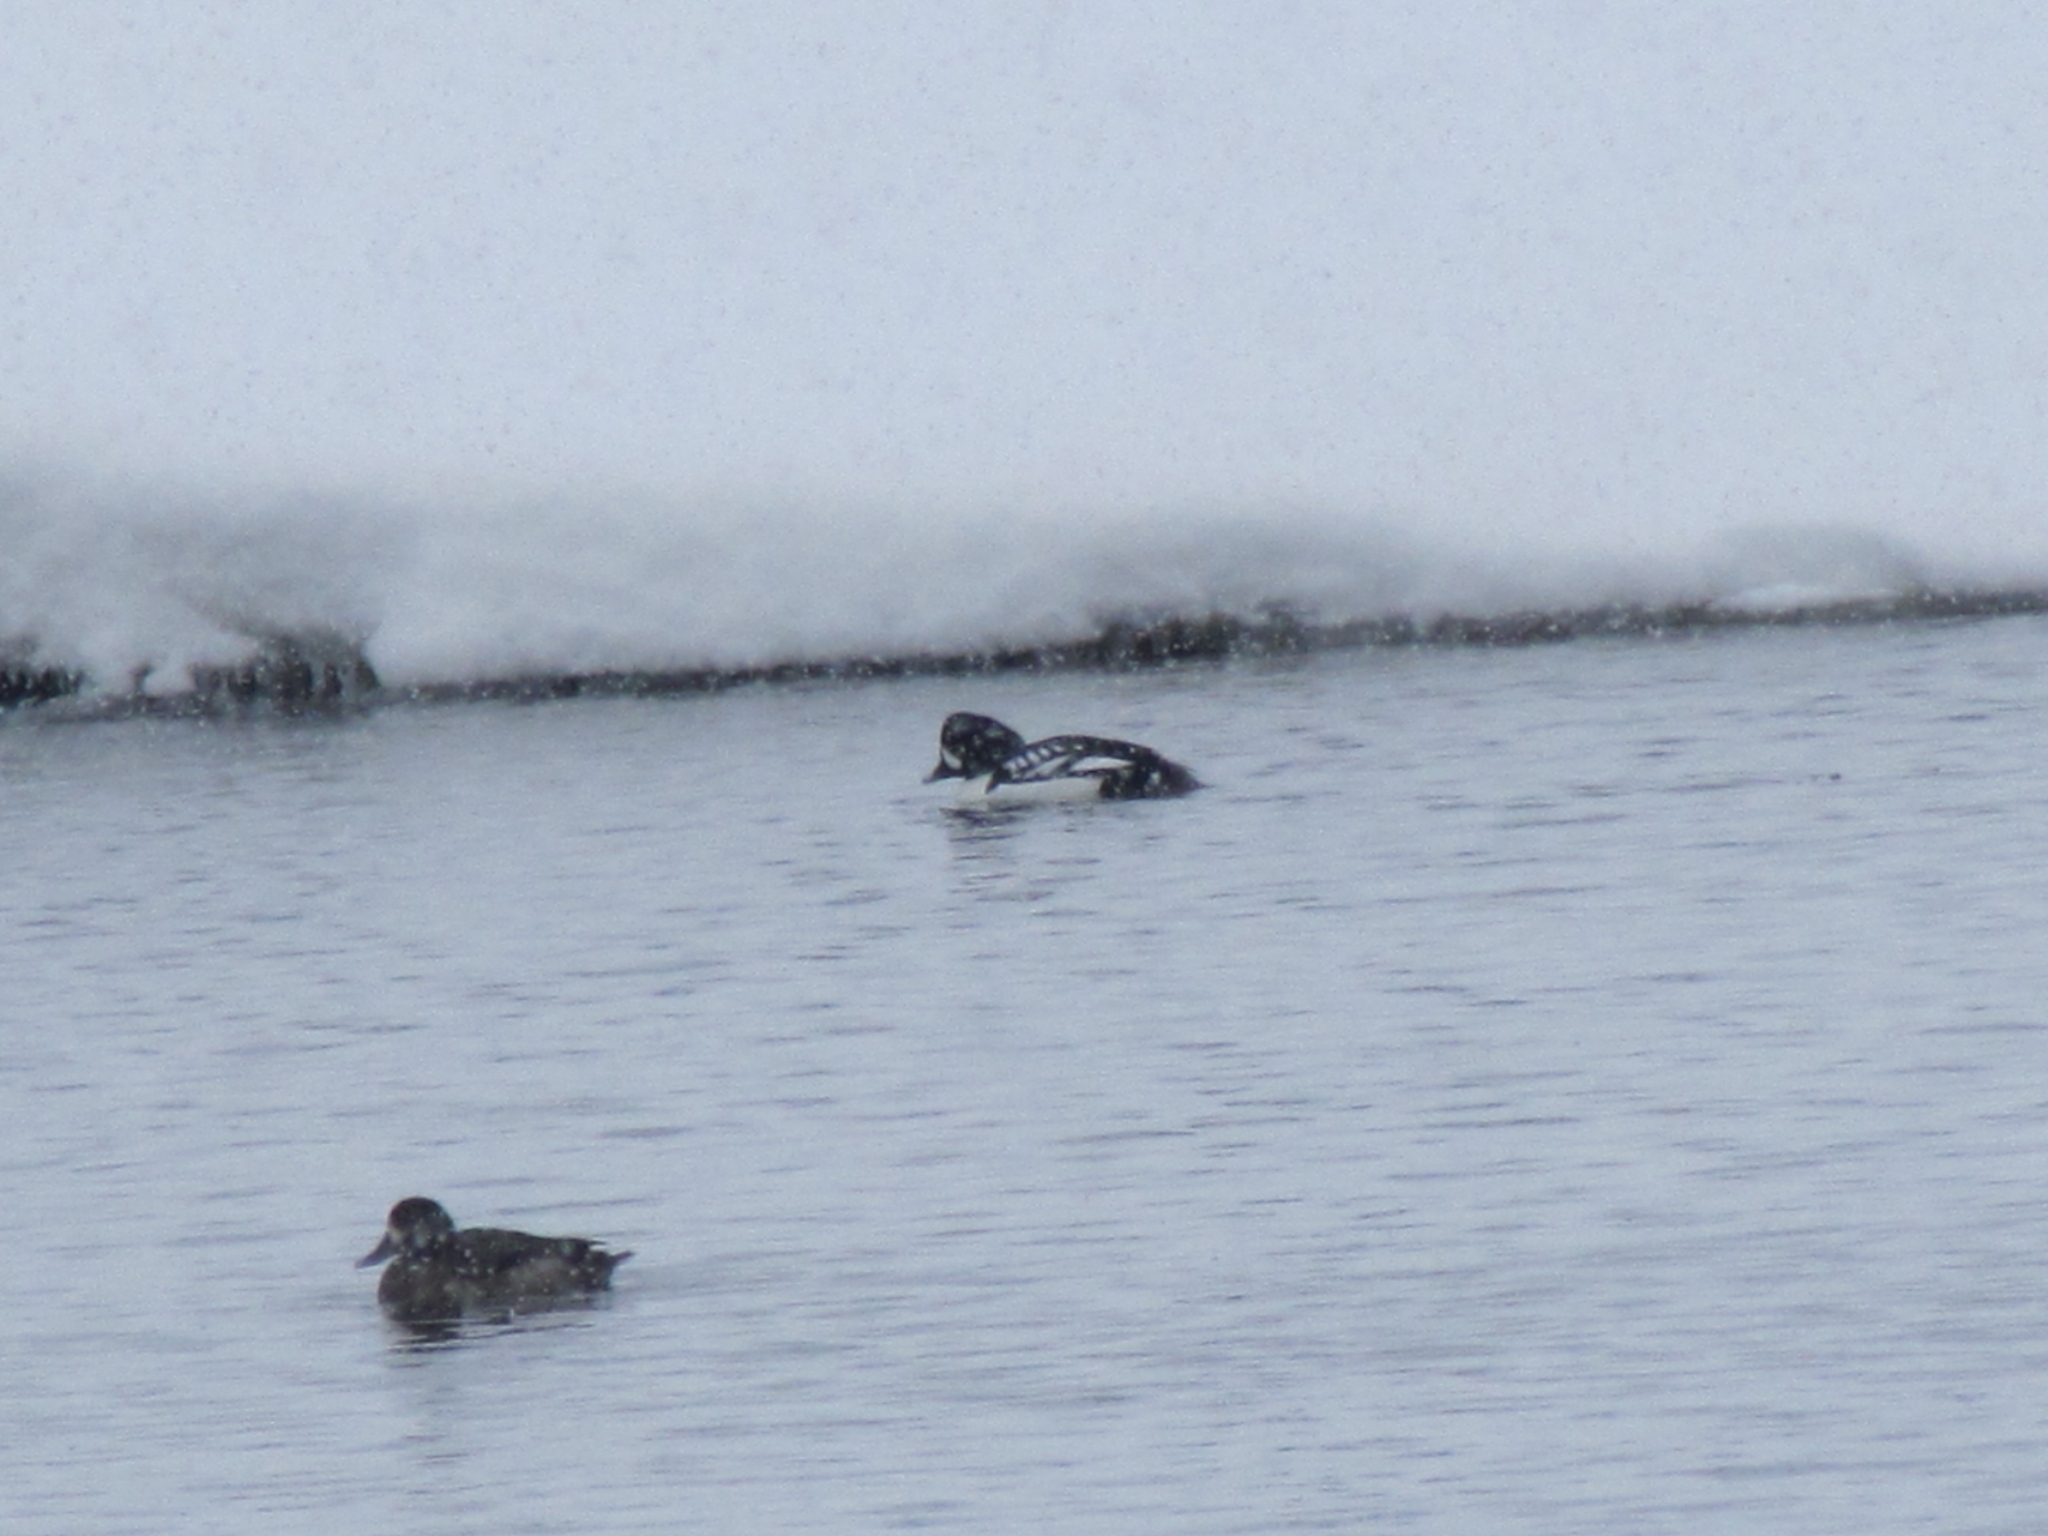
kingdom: Animalia
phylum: Chordata
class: Aves
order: Anseriformes
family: Anatidae
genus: Bucephala
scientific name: Bucephala islandica
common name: Barrow's goldeneye
